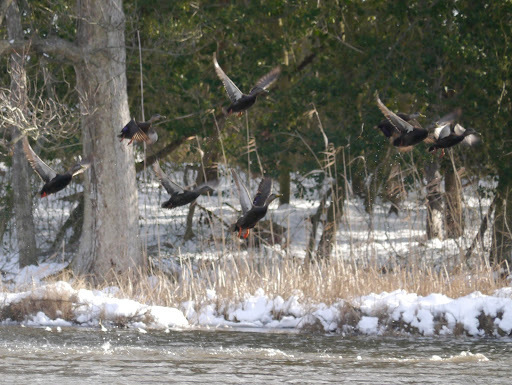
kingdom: Animalia
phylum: Chordata
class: Aves
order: Anseriformes
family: Anatidae
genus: Anas
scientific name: Anas rubripes
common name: American black duck
